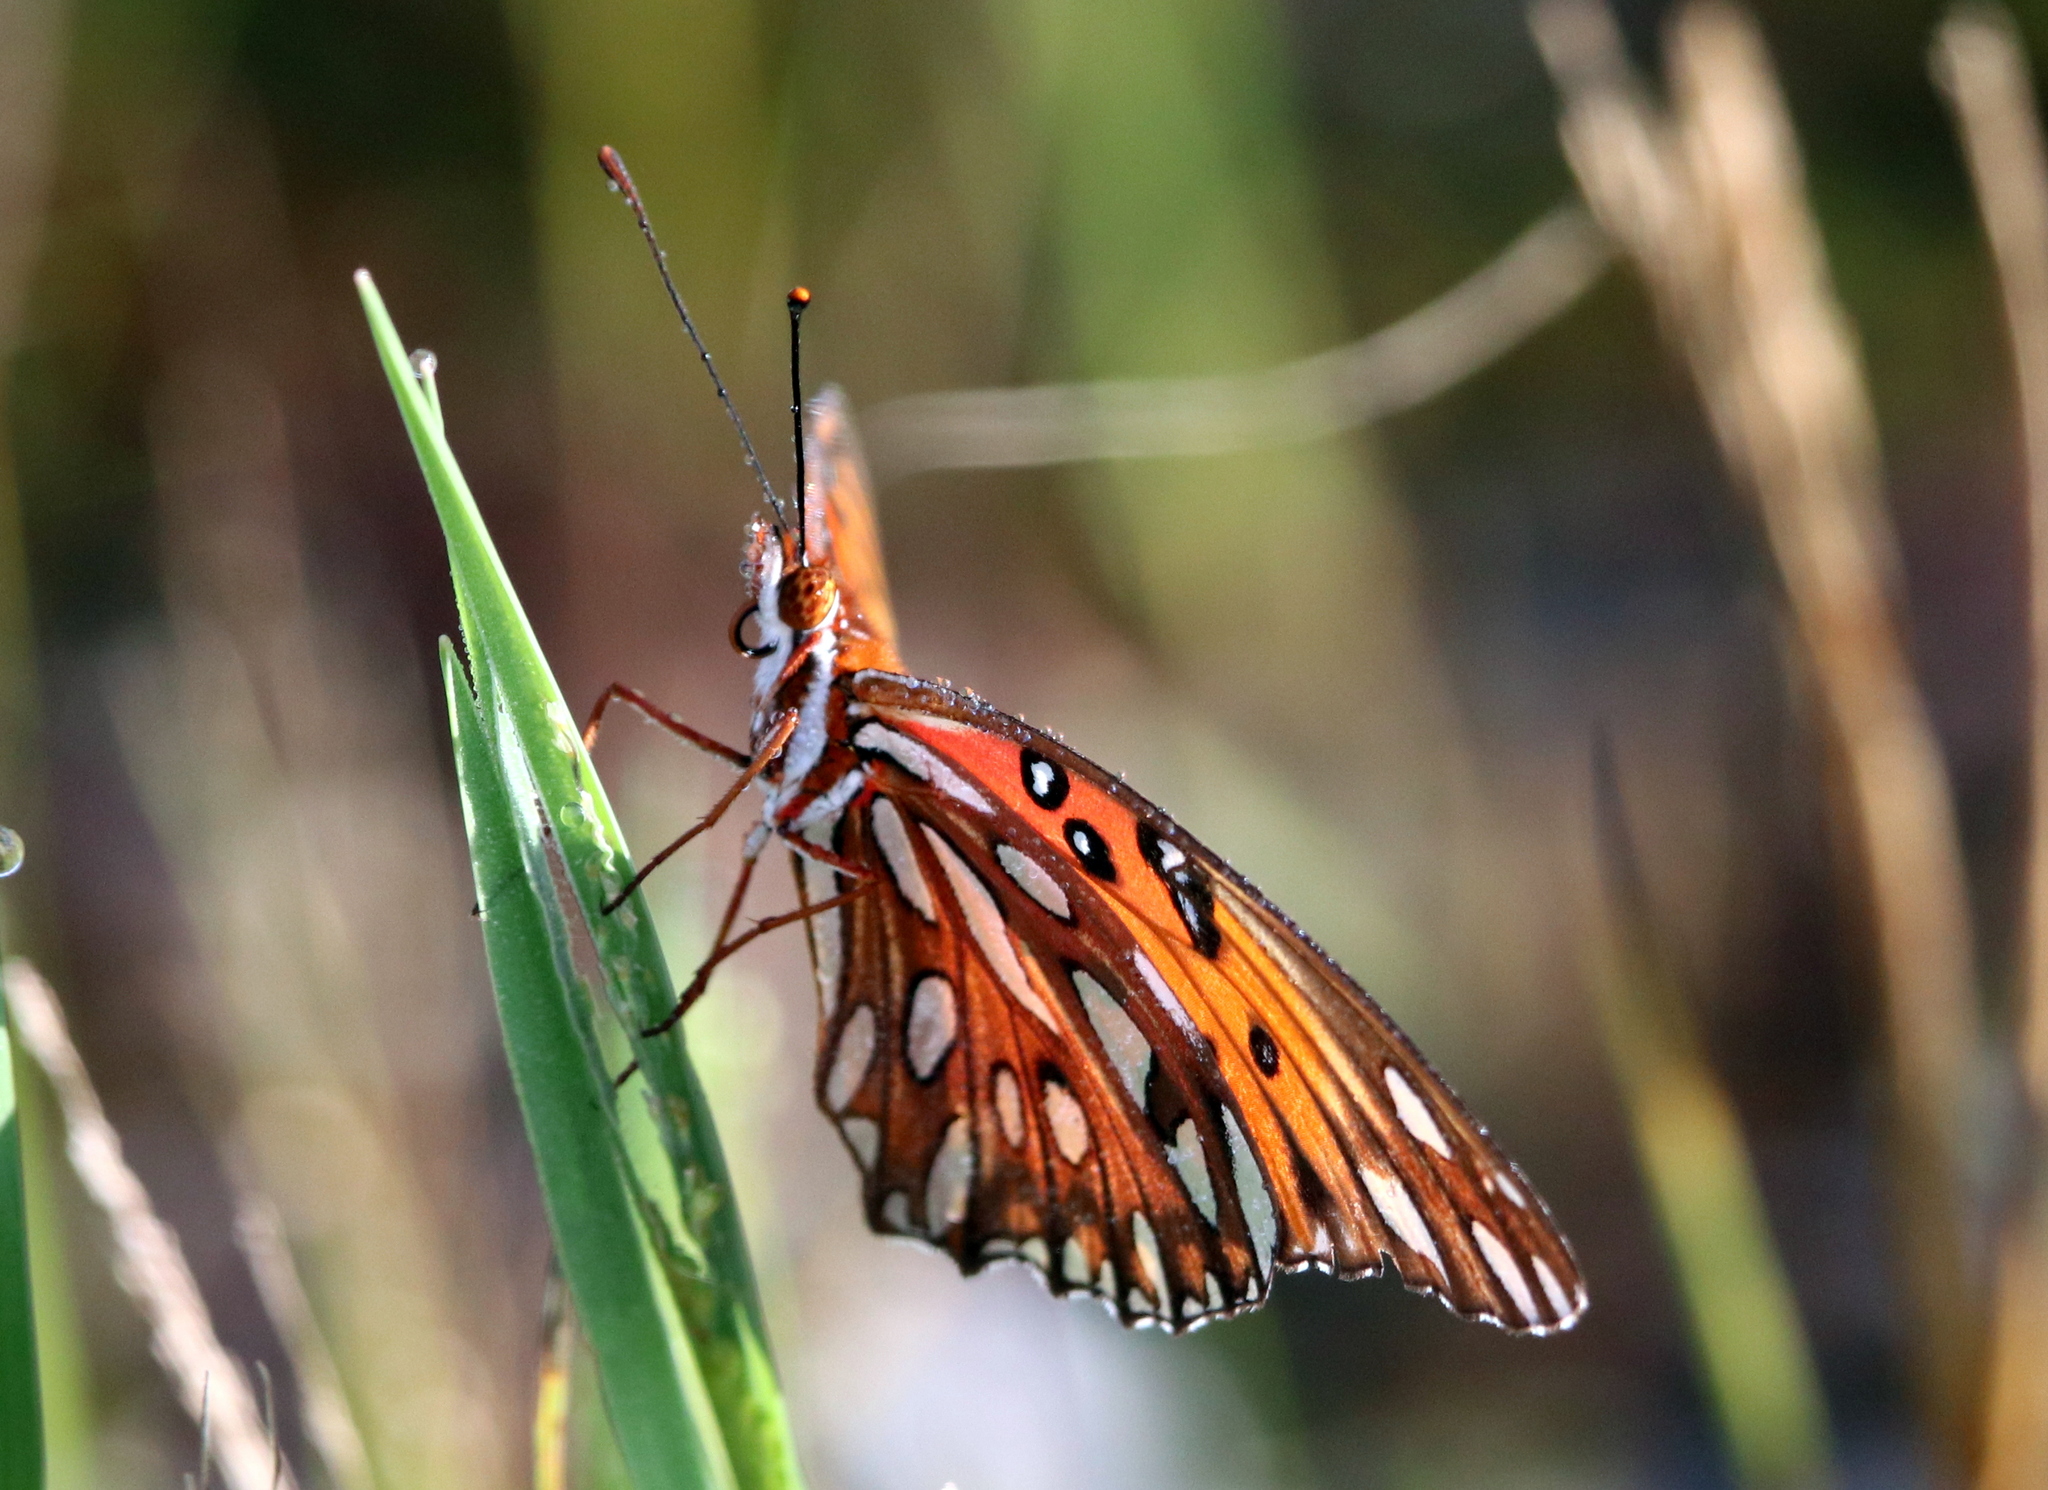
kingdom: Animalia
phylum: Arthropoda
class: Insecta
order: Lepidoptera
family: Nymphalidae
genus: Dione
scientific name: Dione vanillae
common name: Gulf fritillary
